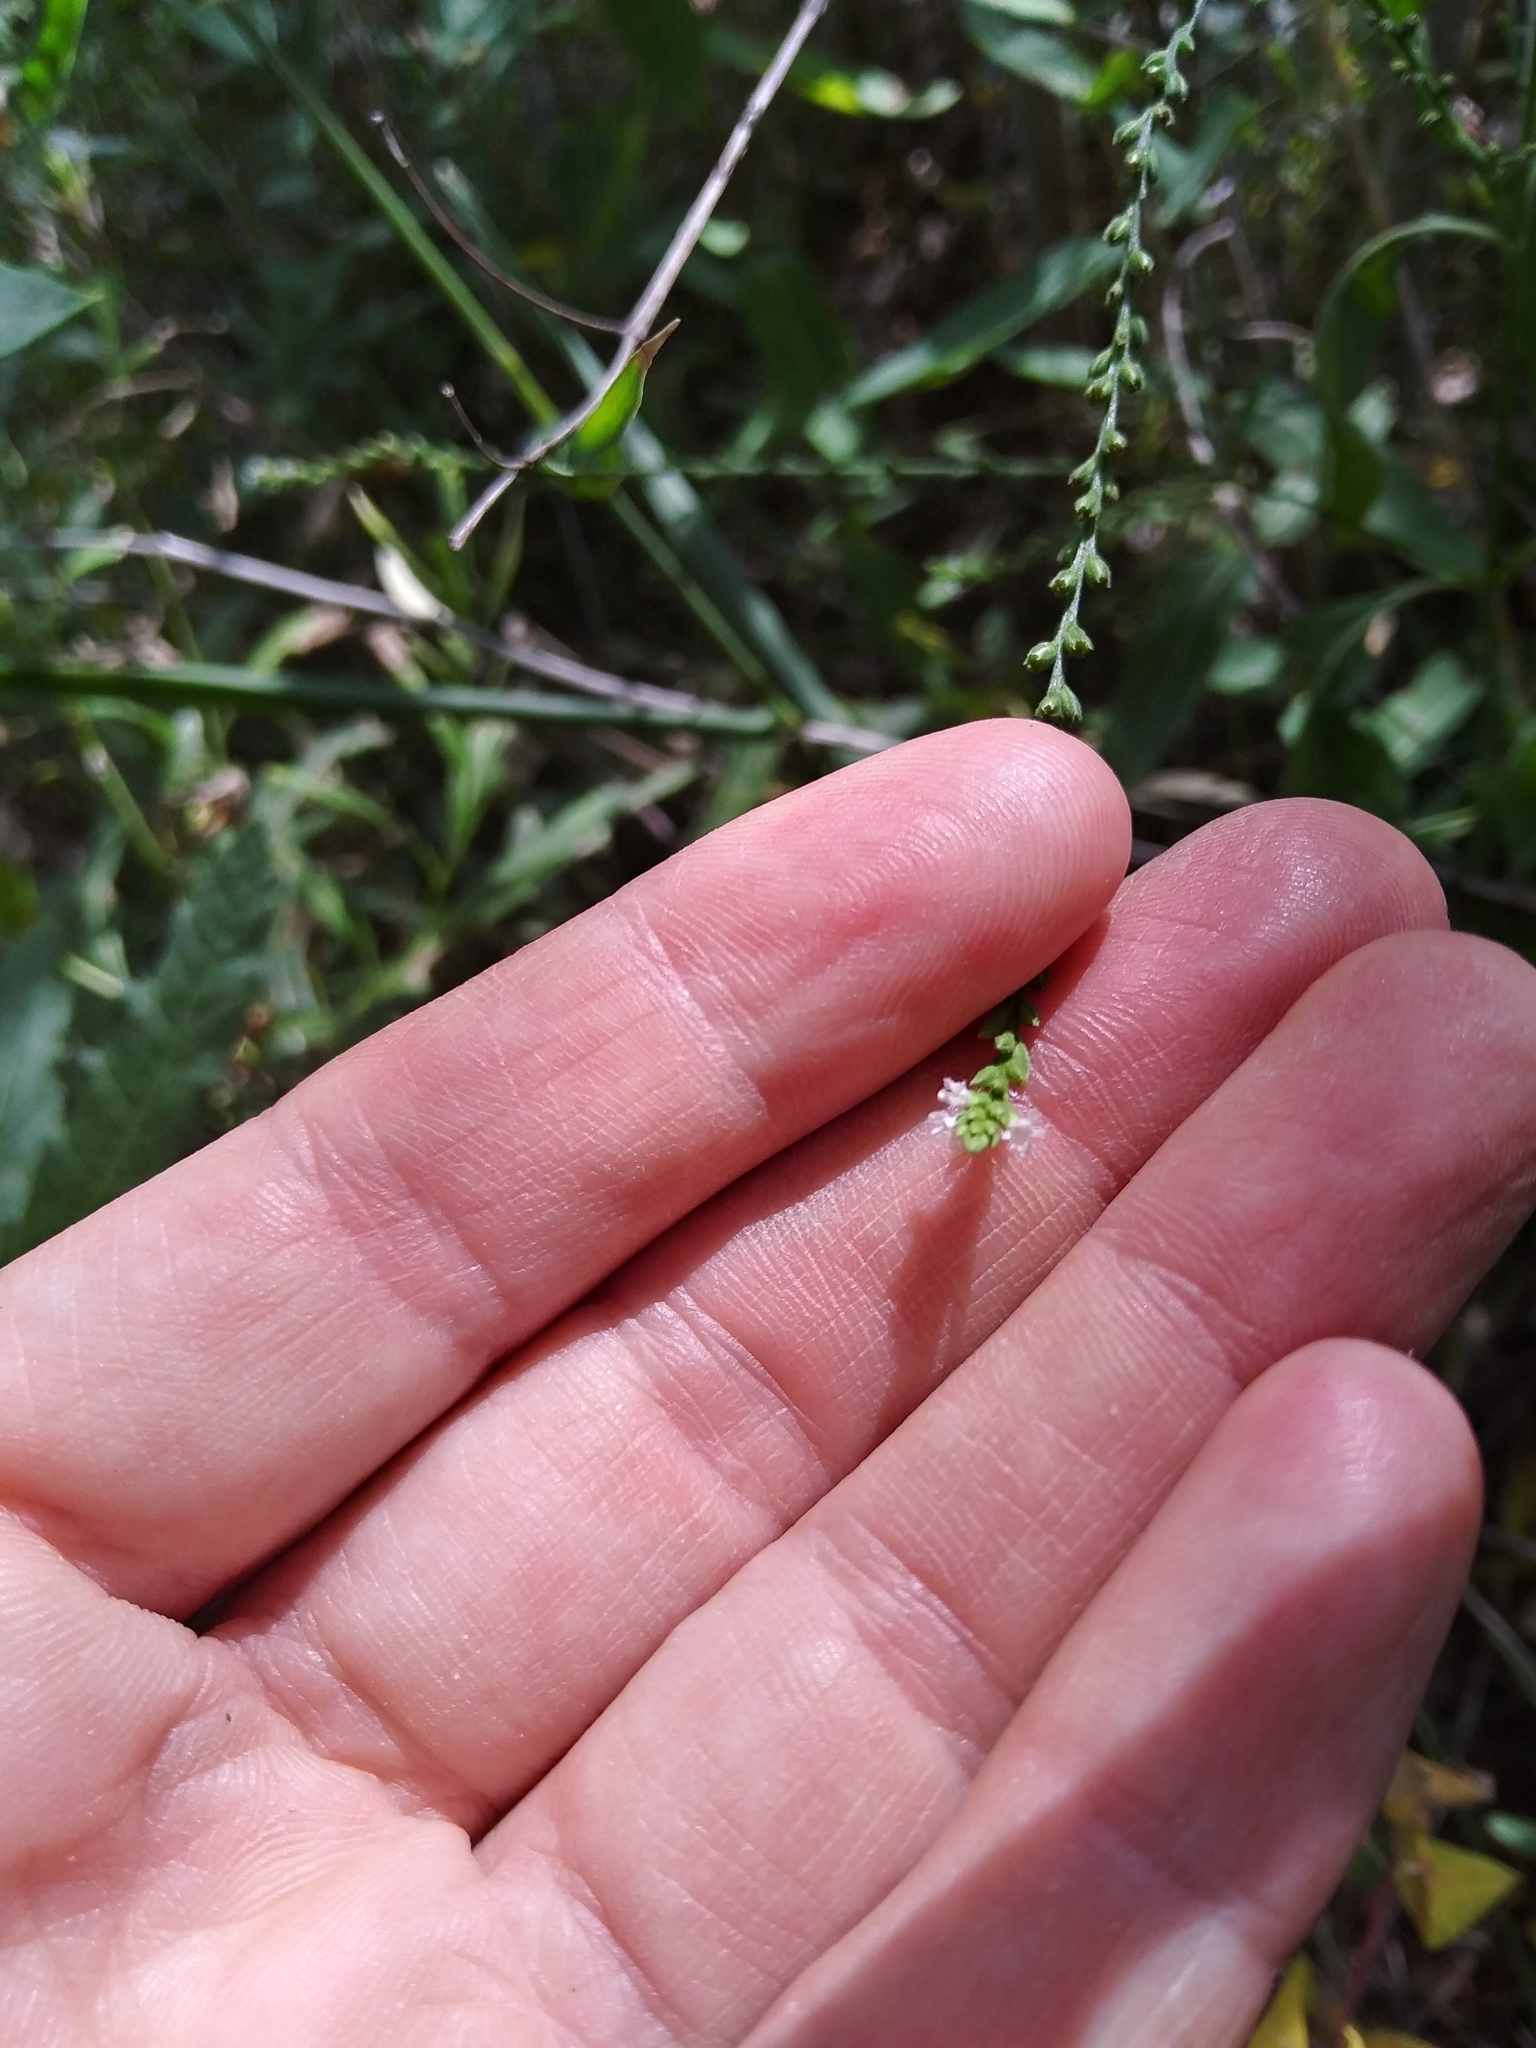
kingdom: Plantae
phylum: Tracheophyta
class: Magnoliopsida
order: Lamiales
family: Verbenaceae
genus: Verbena
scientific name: Verbena urticifolia
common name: Nettle-leaved vervain
